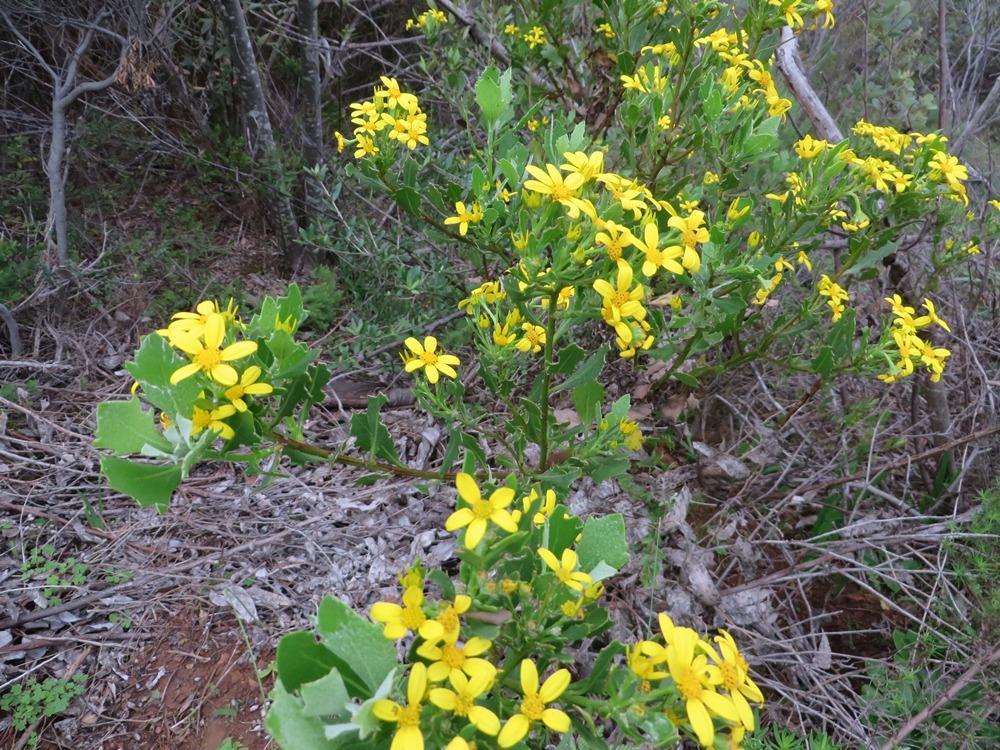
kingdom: Plantae
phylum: Tracheophyta
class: Magnoliopsida
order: Asterales
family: Asteraceae
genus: Osteospermum
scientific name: Osteospermum moniliferum
